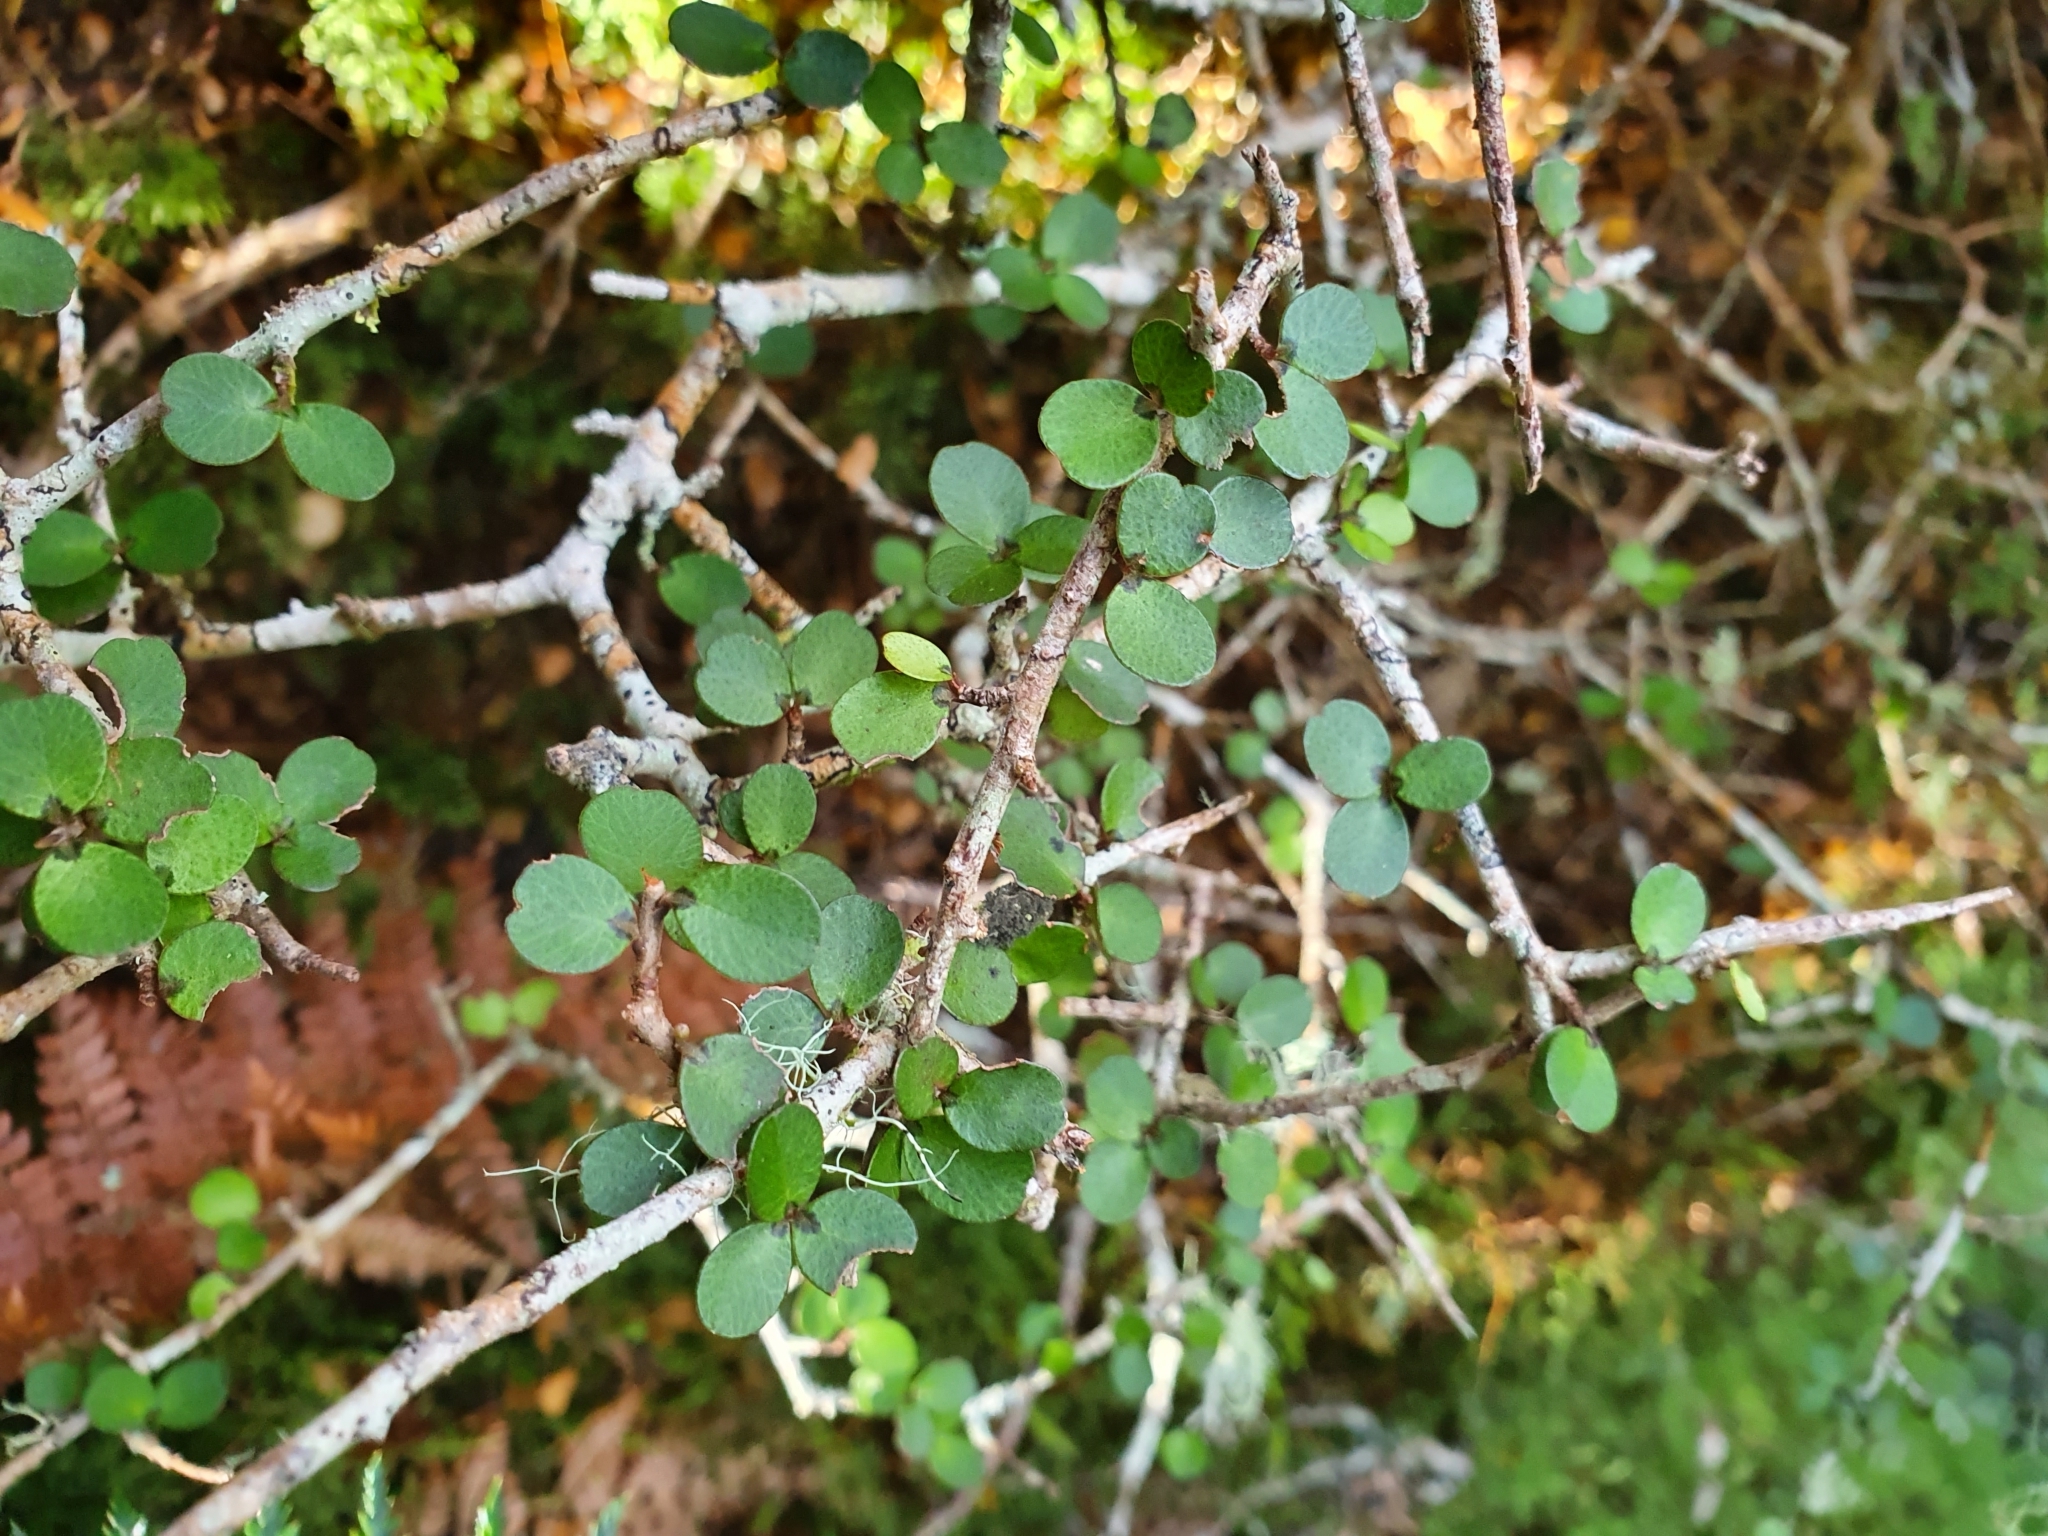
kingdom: Plantae
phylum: Tracheophyta
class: Magnoliopsida
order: Ericales
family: Primulaceae
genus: Myrsine
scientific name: Myrsine umbricola
